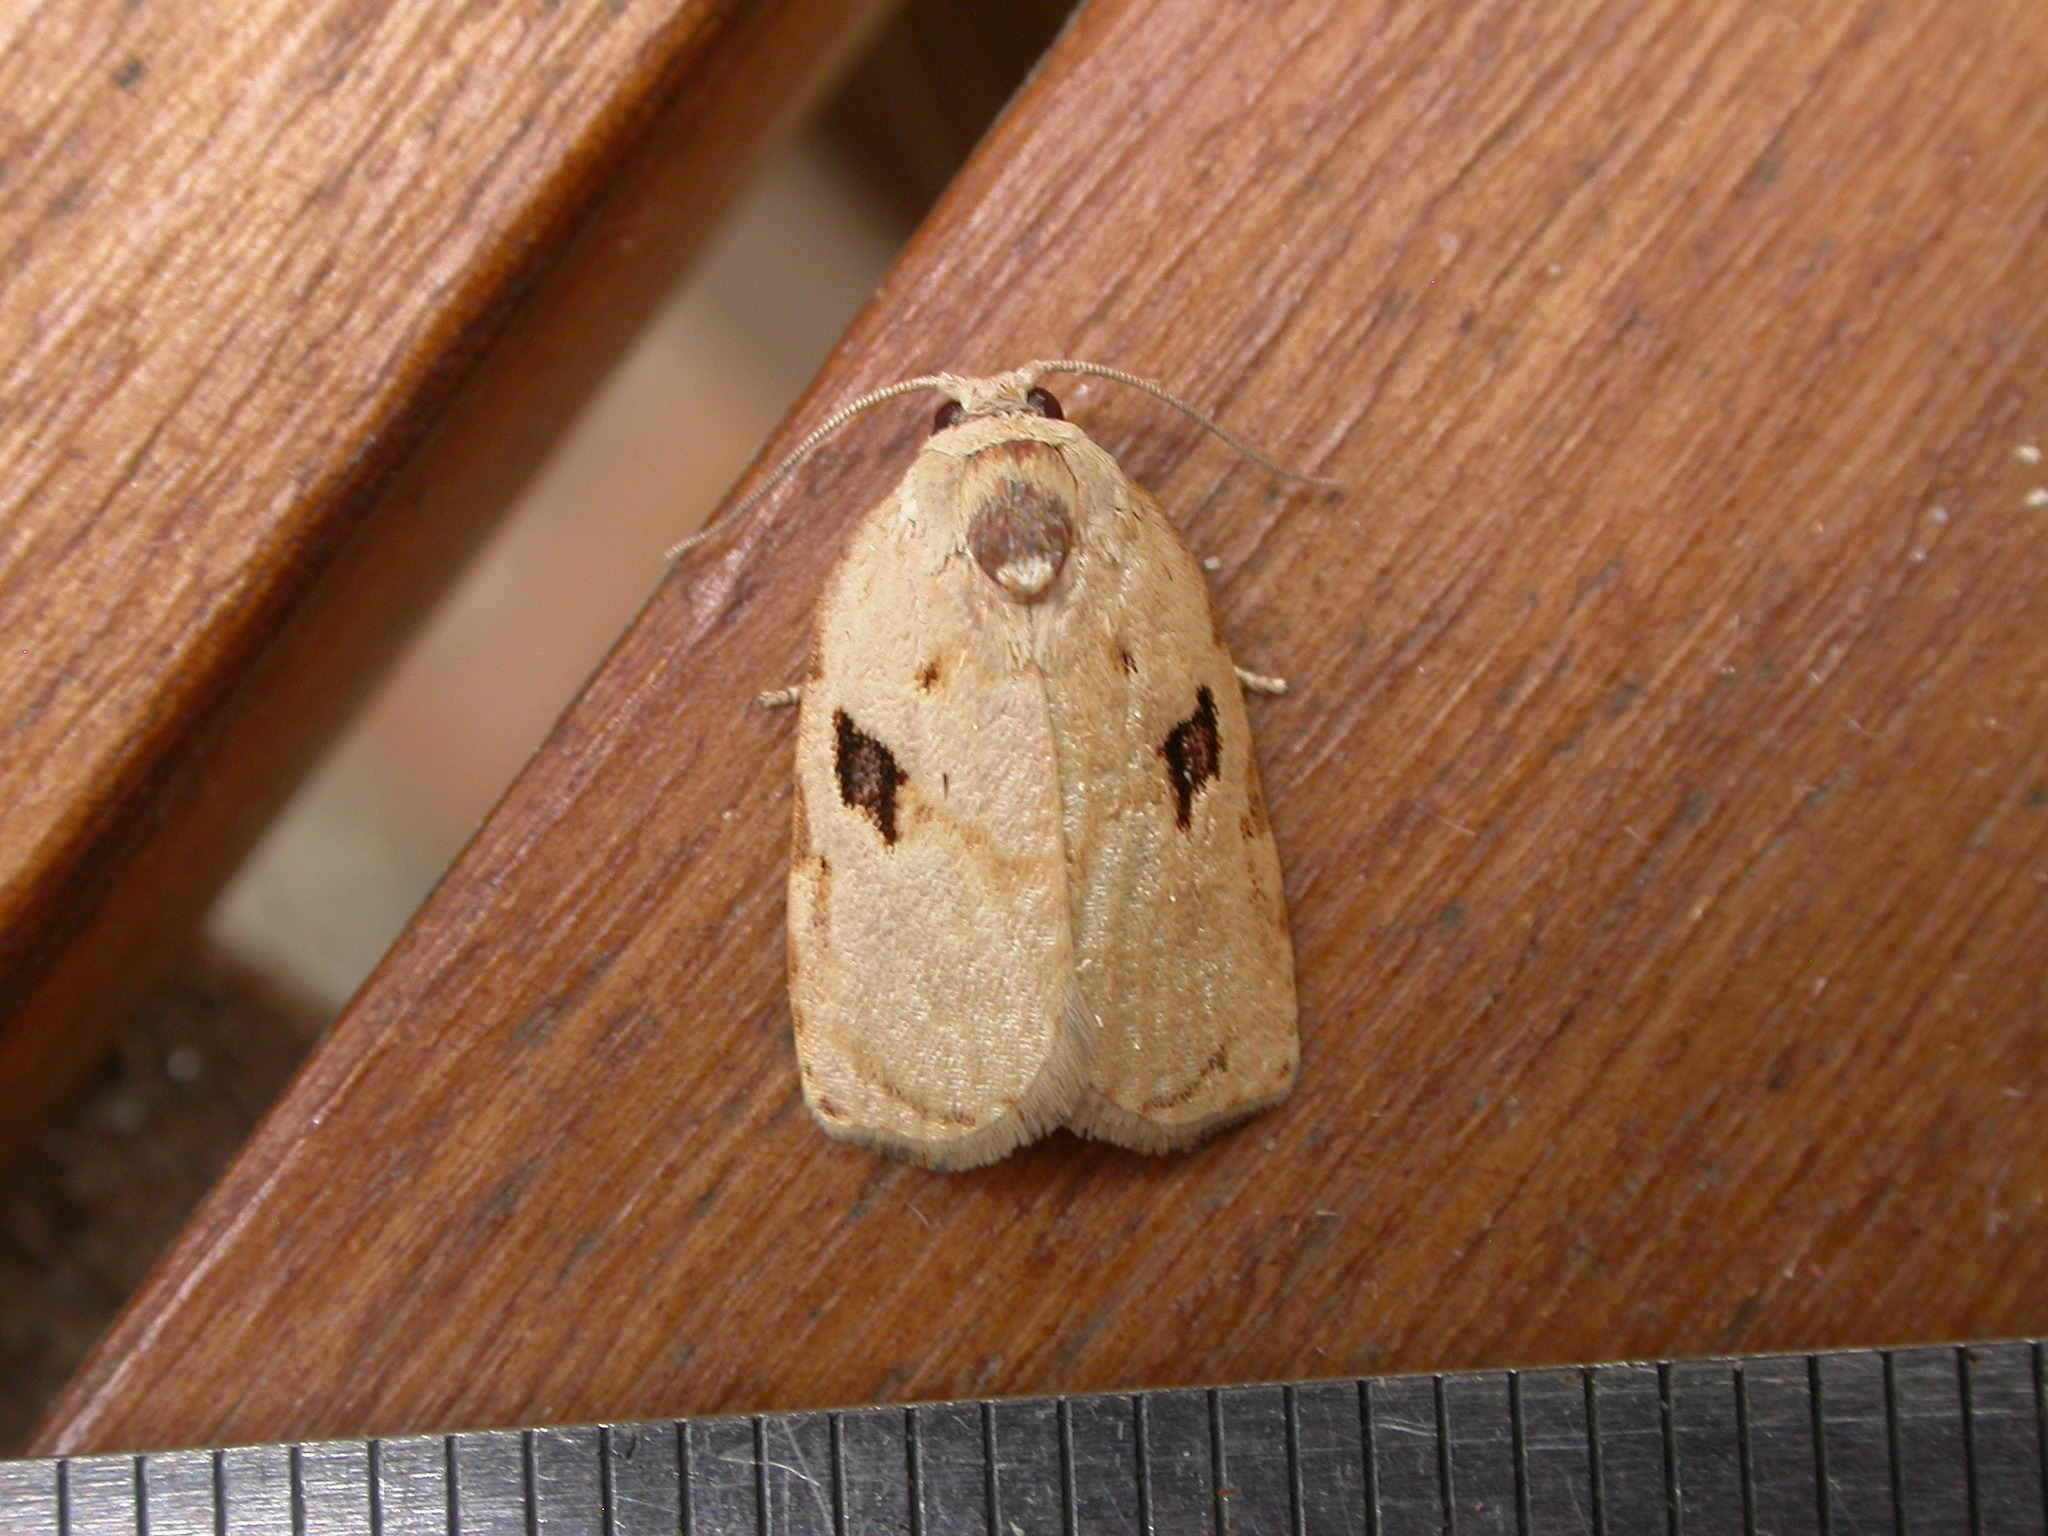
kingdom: Animalia
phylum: Arthropoda
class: Insecta
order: Lepidoptera
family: Tortricidae
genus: Homona
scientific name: Homona mermerodes
